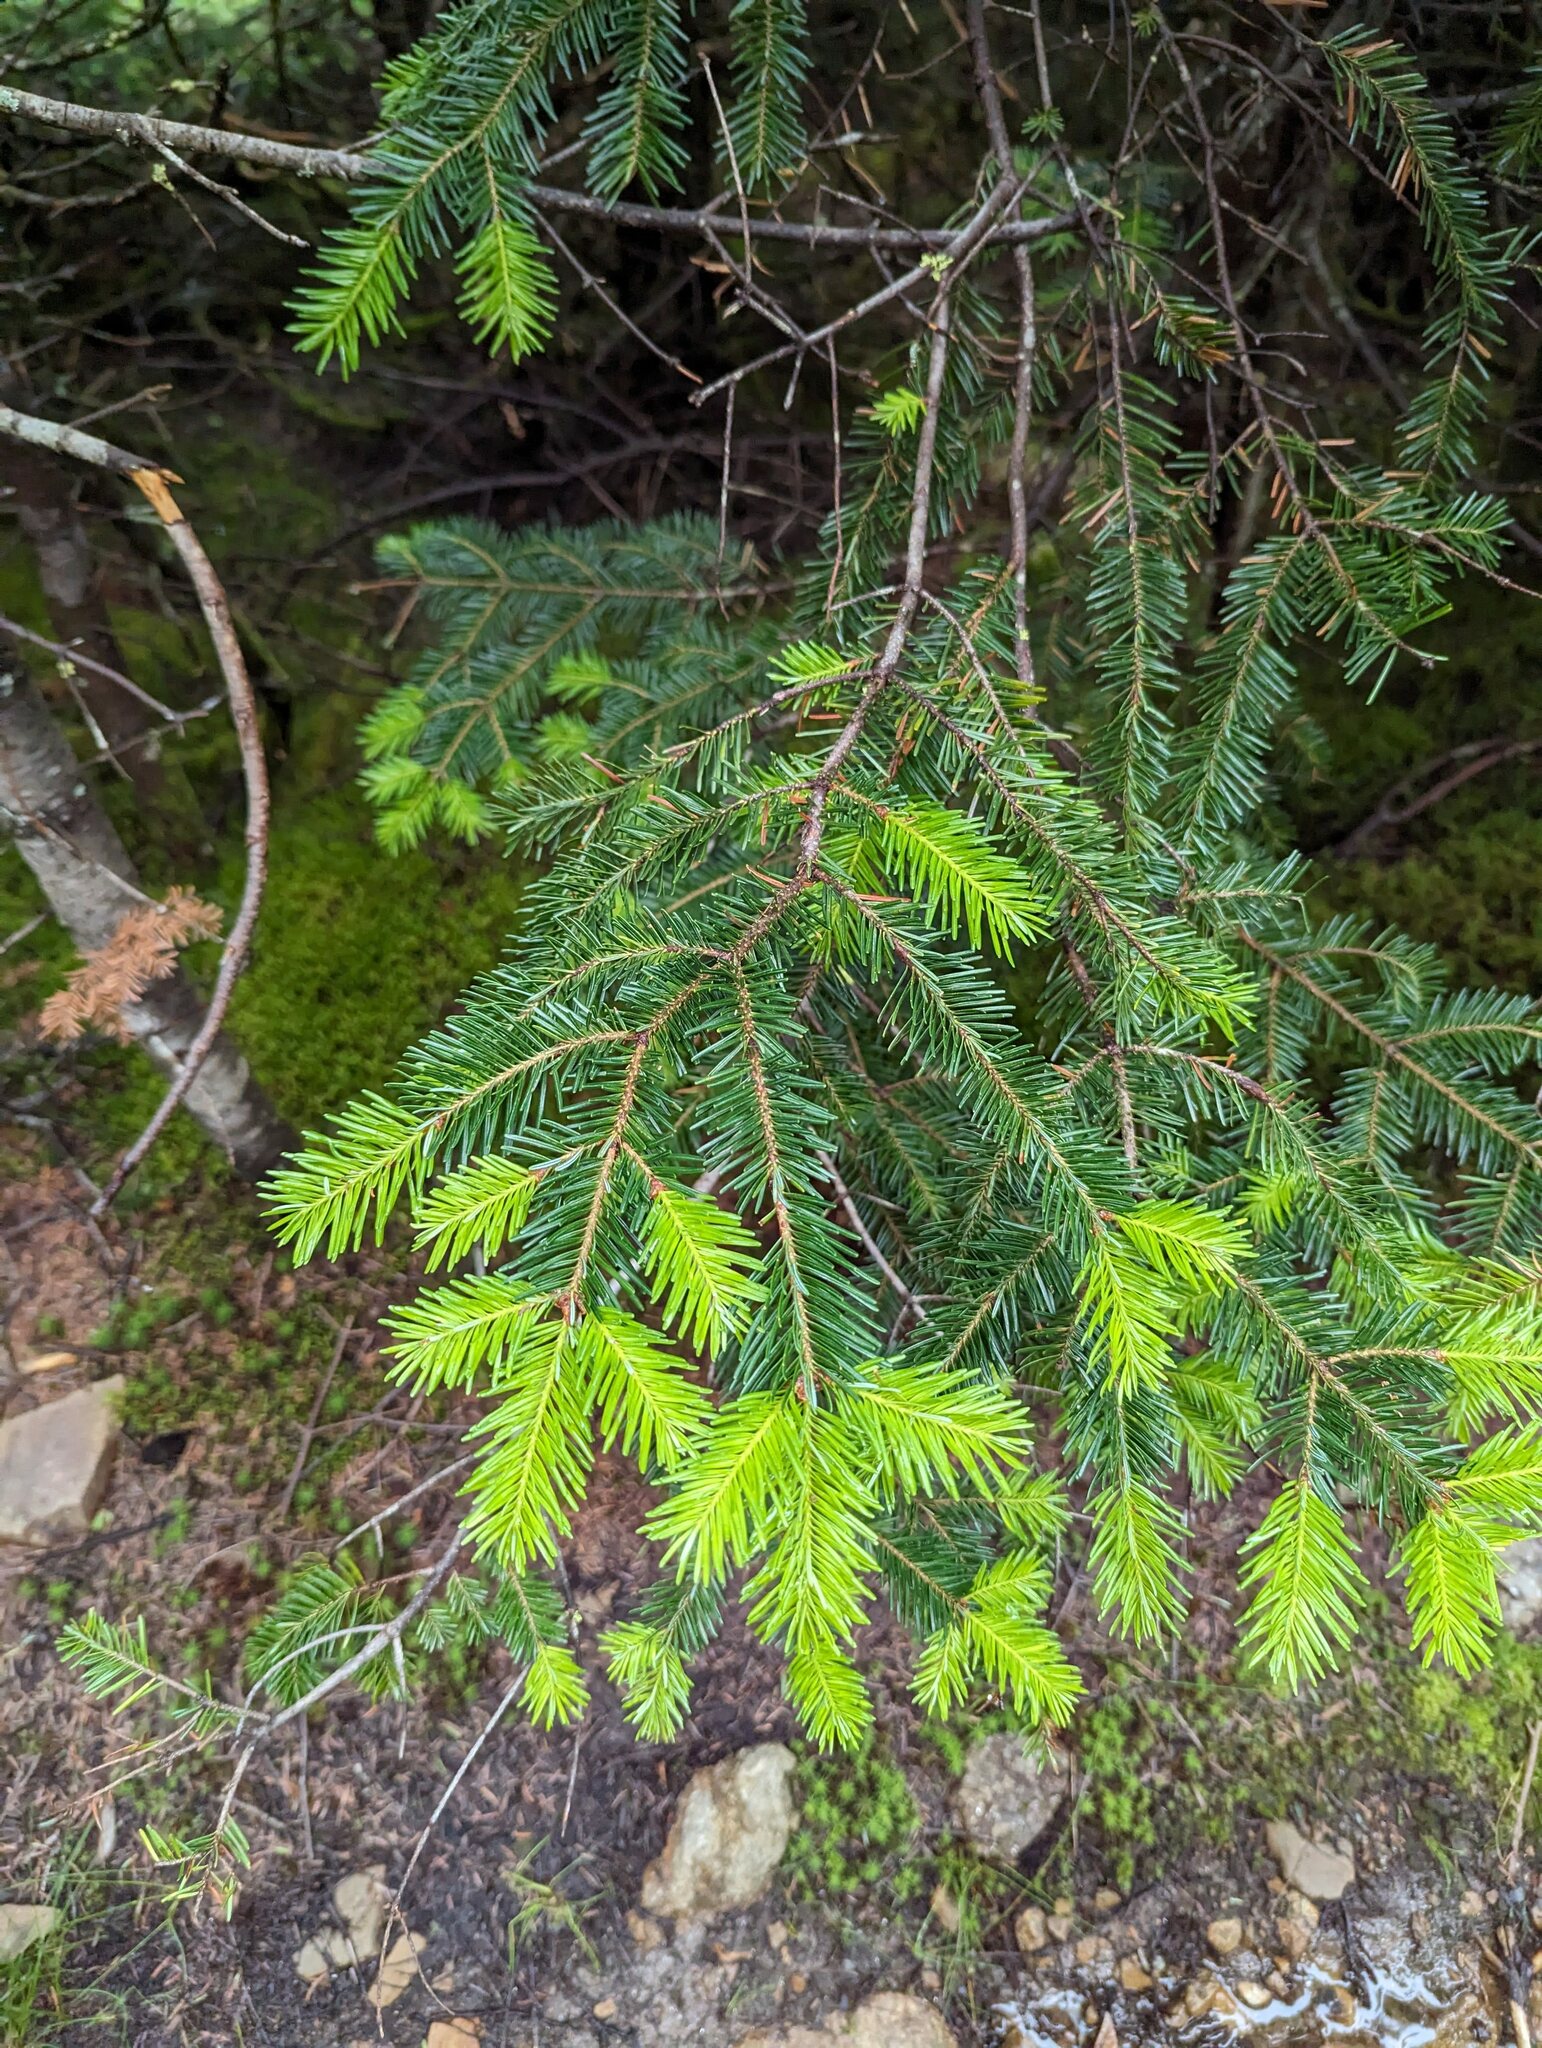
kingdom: Plantae
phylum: Tracheophyta
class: Pinopsida
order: Pinales
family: Pinaceae
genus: Abies
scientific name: Abies balsamea
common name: Balsam fir
